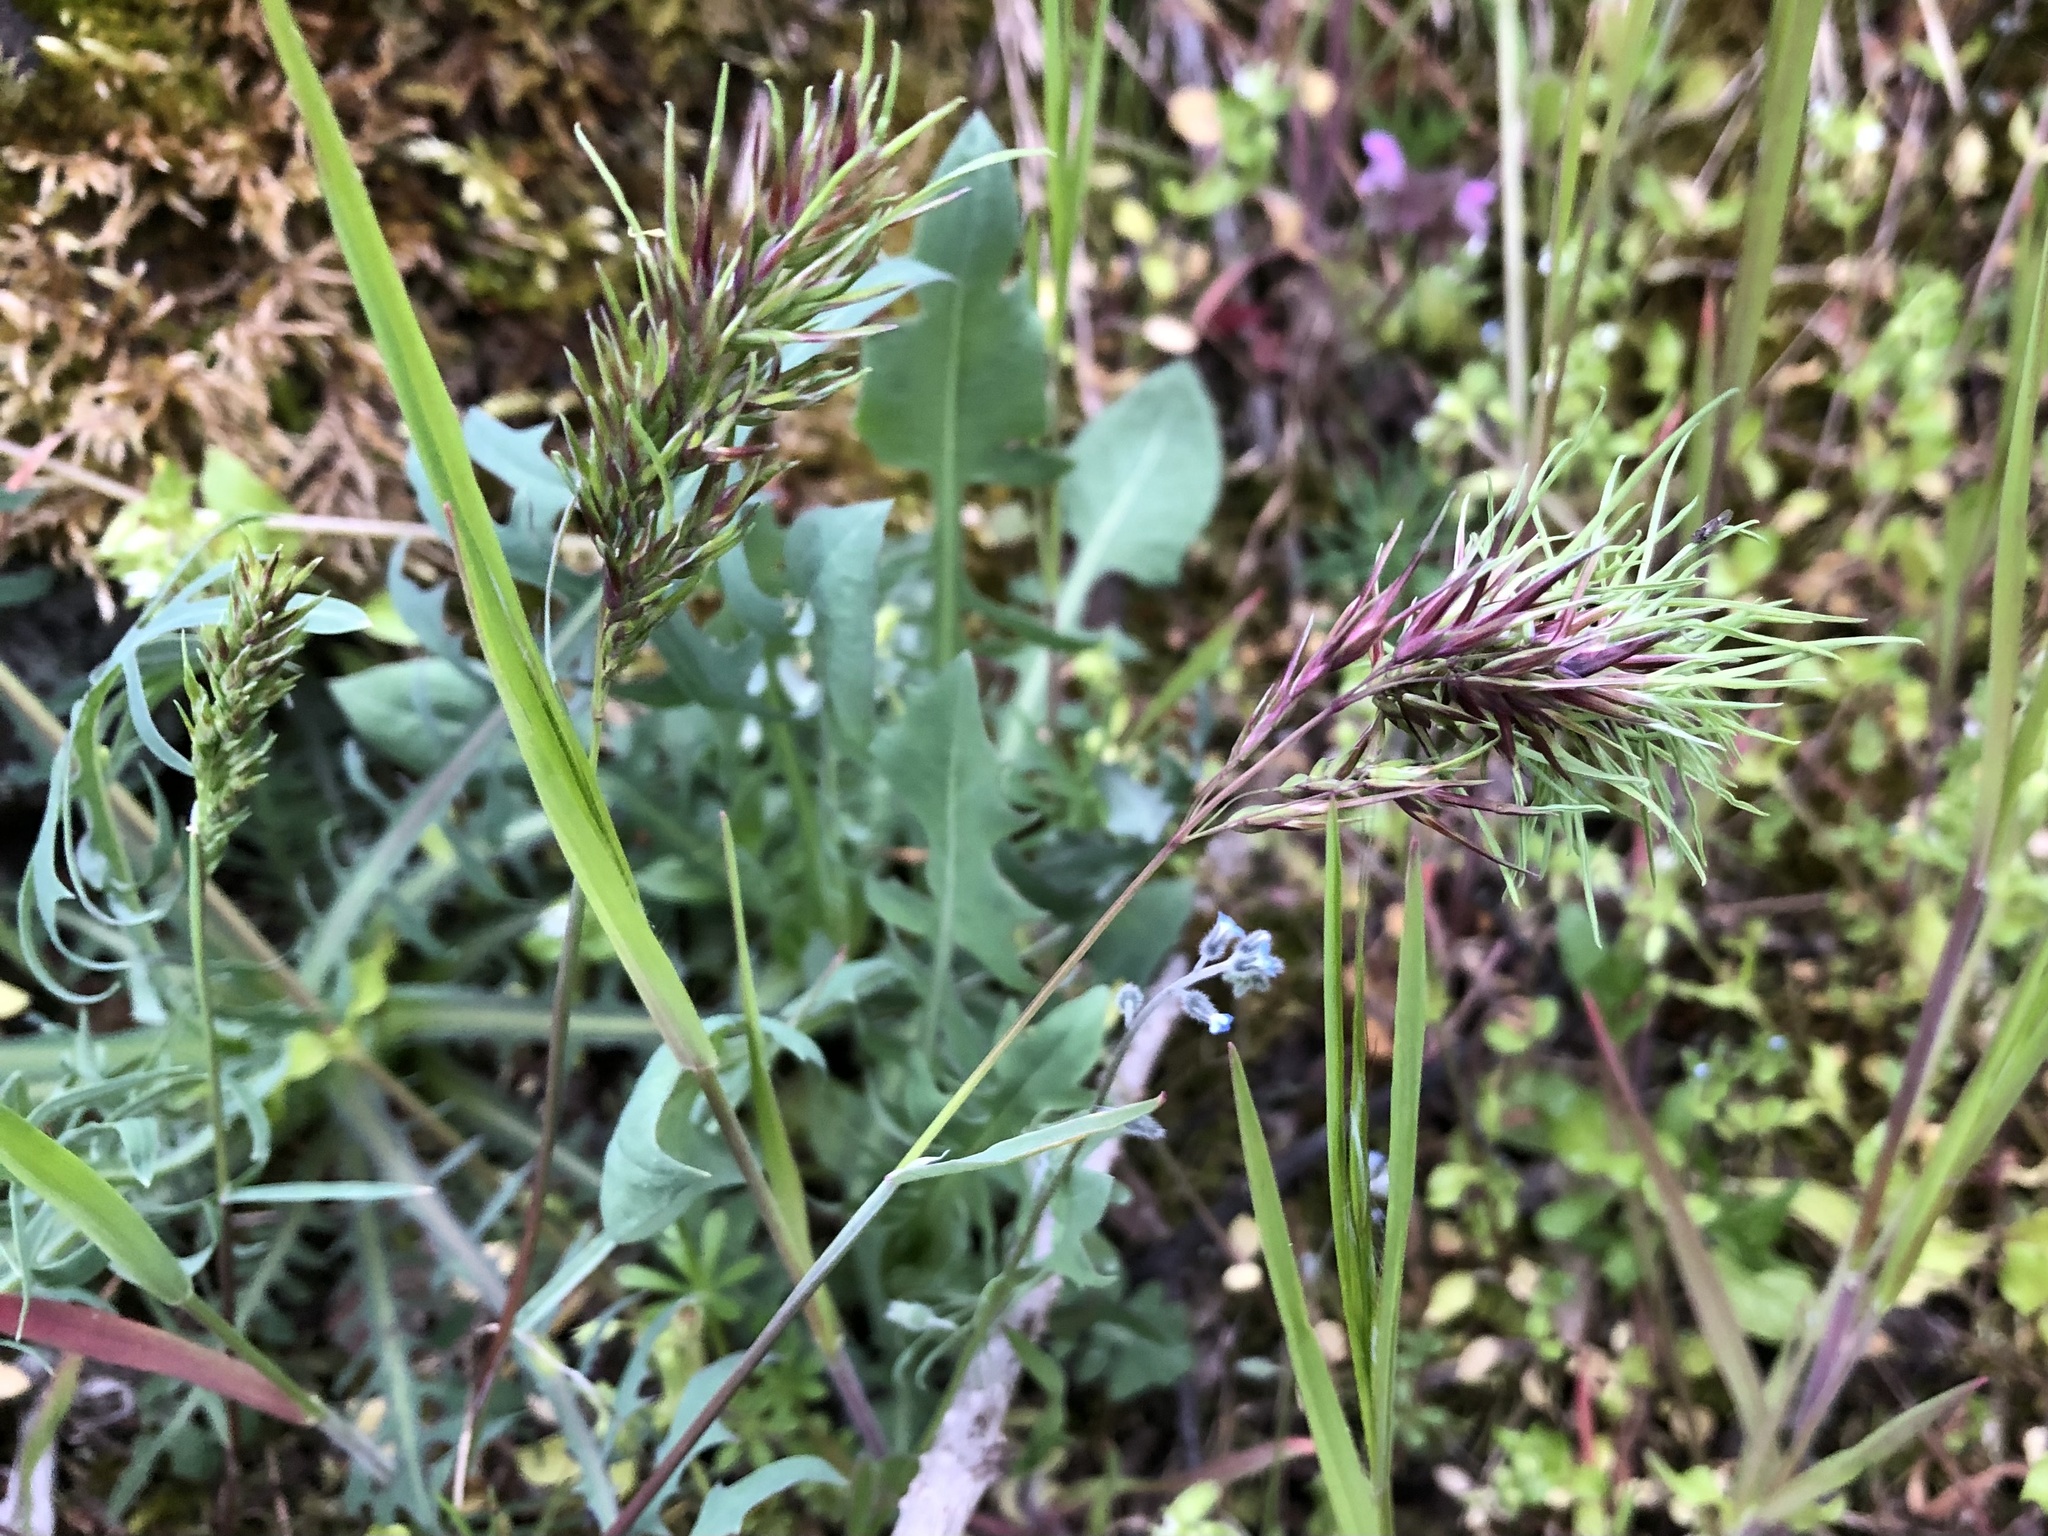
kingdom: Plantae
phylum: Tracheophyta
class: Liliopsida
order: Poales
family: Poaceae
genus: Poa
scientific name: Poa bulbosa
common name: Bulbous bluegrass
